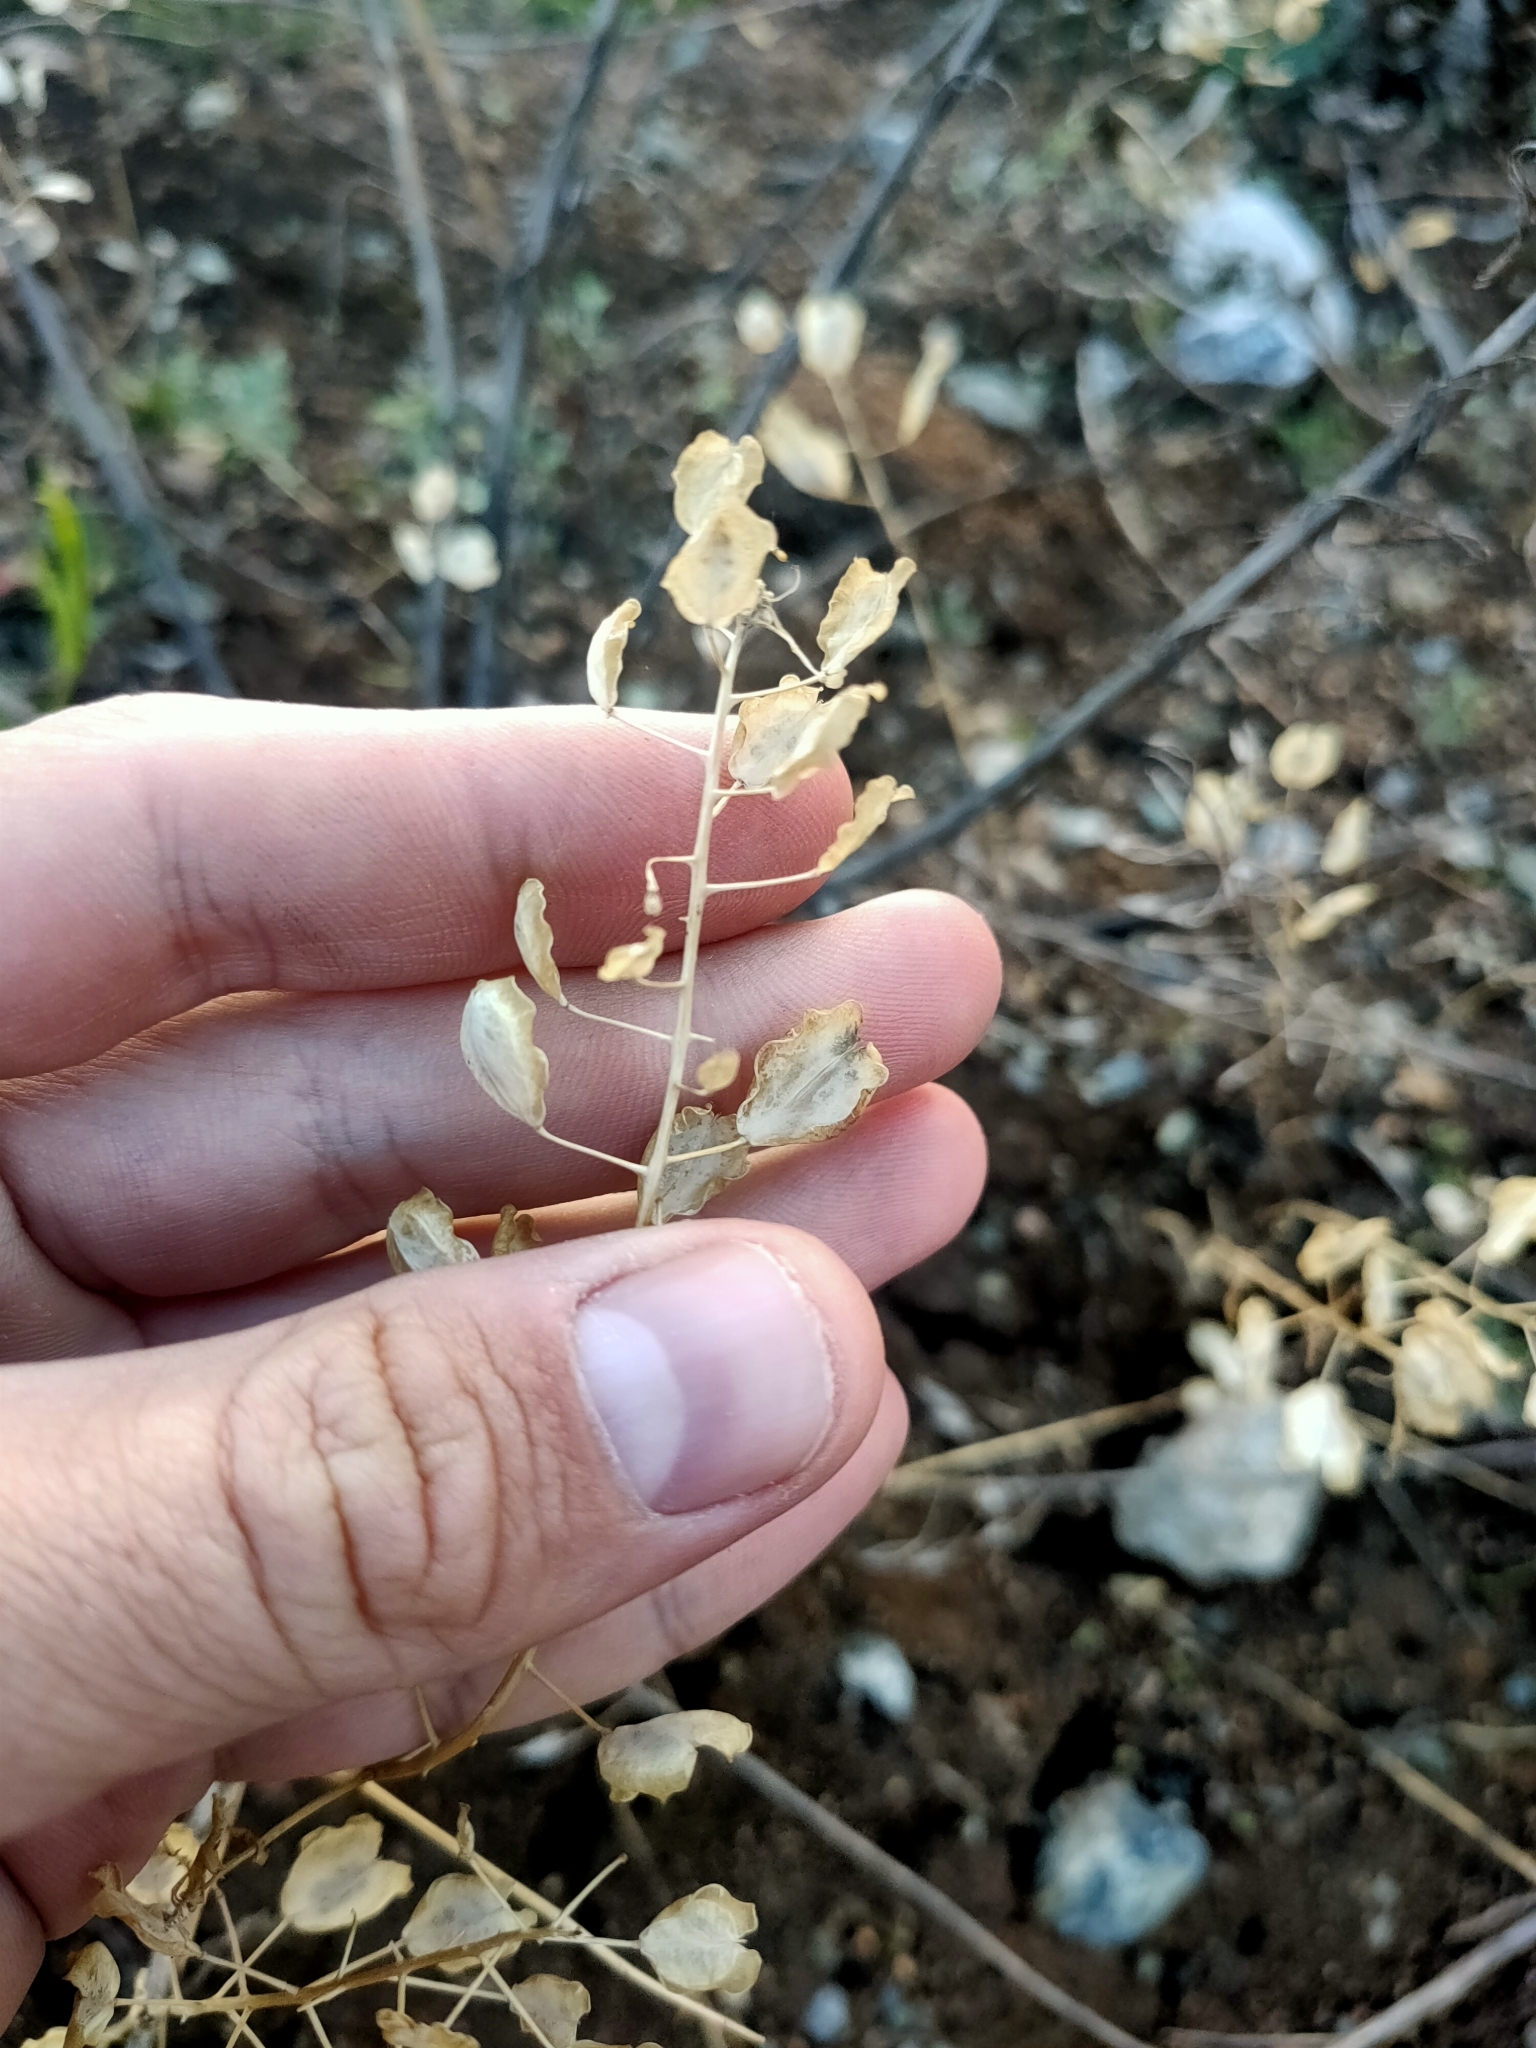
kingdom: Plantae
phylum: Tracheophyta
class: Magnoliopsida
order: Brassicales
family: Brassicaceae
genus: Thlaspi
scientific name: Thlaspi arvense
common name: Field pennycress
